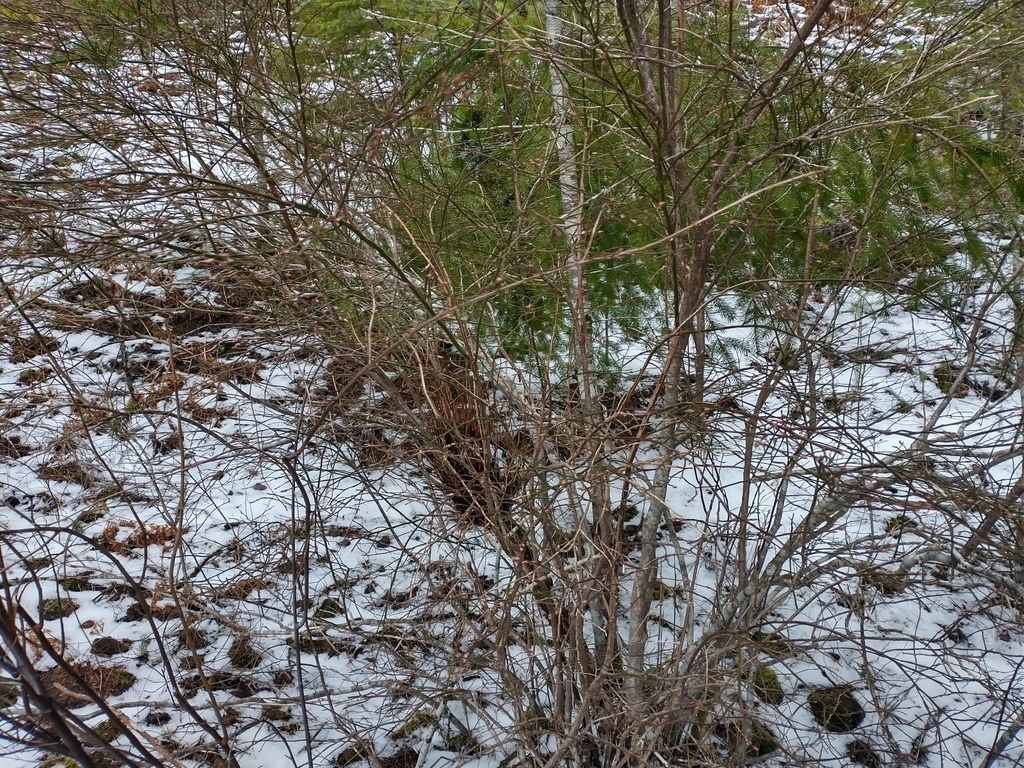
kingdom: Fungi
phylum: Basidiomycota
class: Pucciniomycetes
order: Pucciniales
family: Pucciniastraceae
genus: Calyptospora
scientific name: Calyptospora
